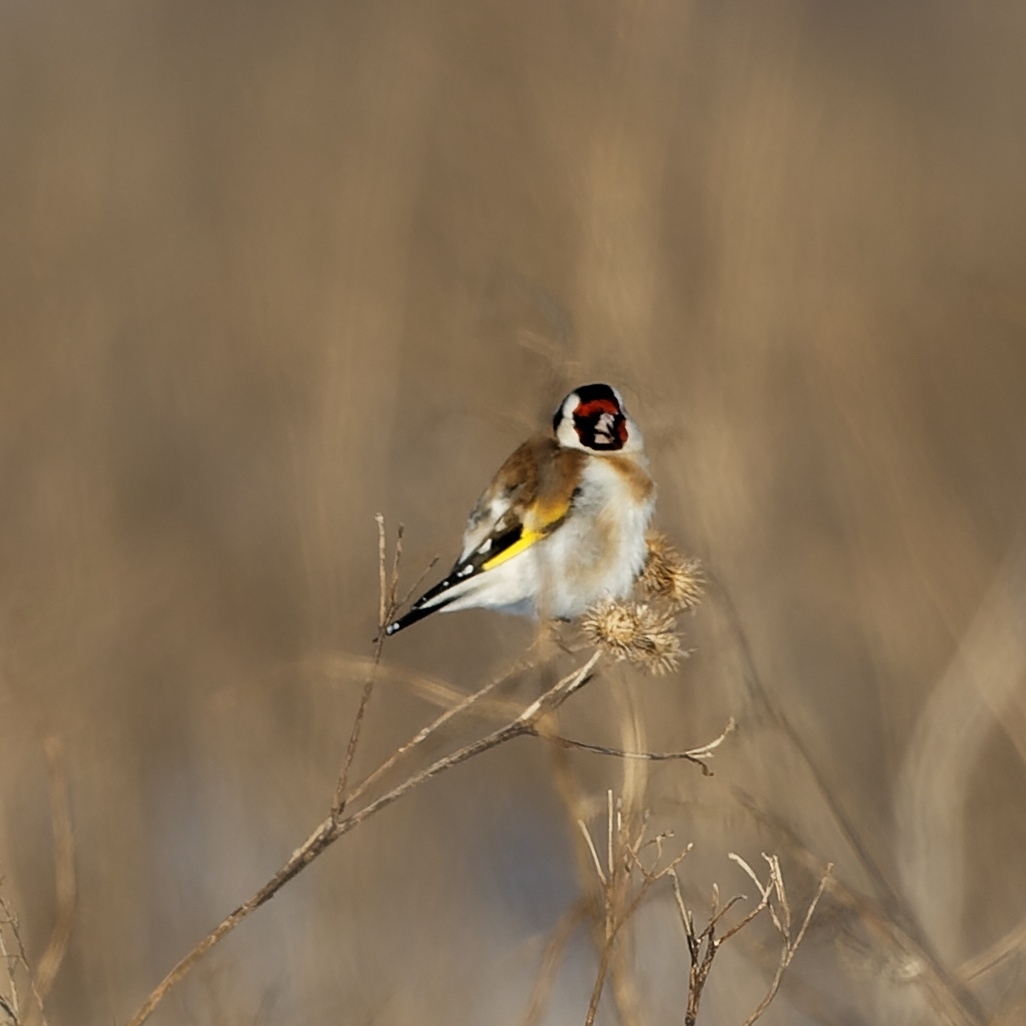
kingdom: Animalia
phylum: Chordata
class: Aves
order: Passeriformes
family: Fringillidae
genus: Carduelis
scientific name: Carduelis carduelis
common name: European goldfinch
